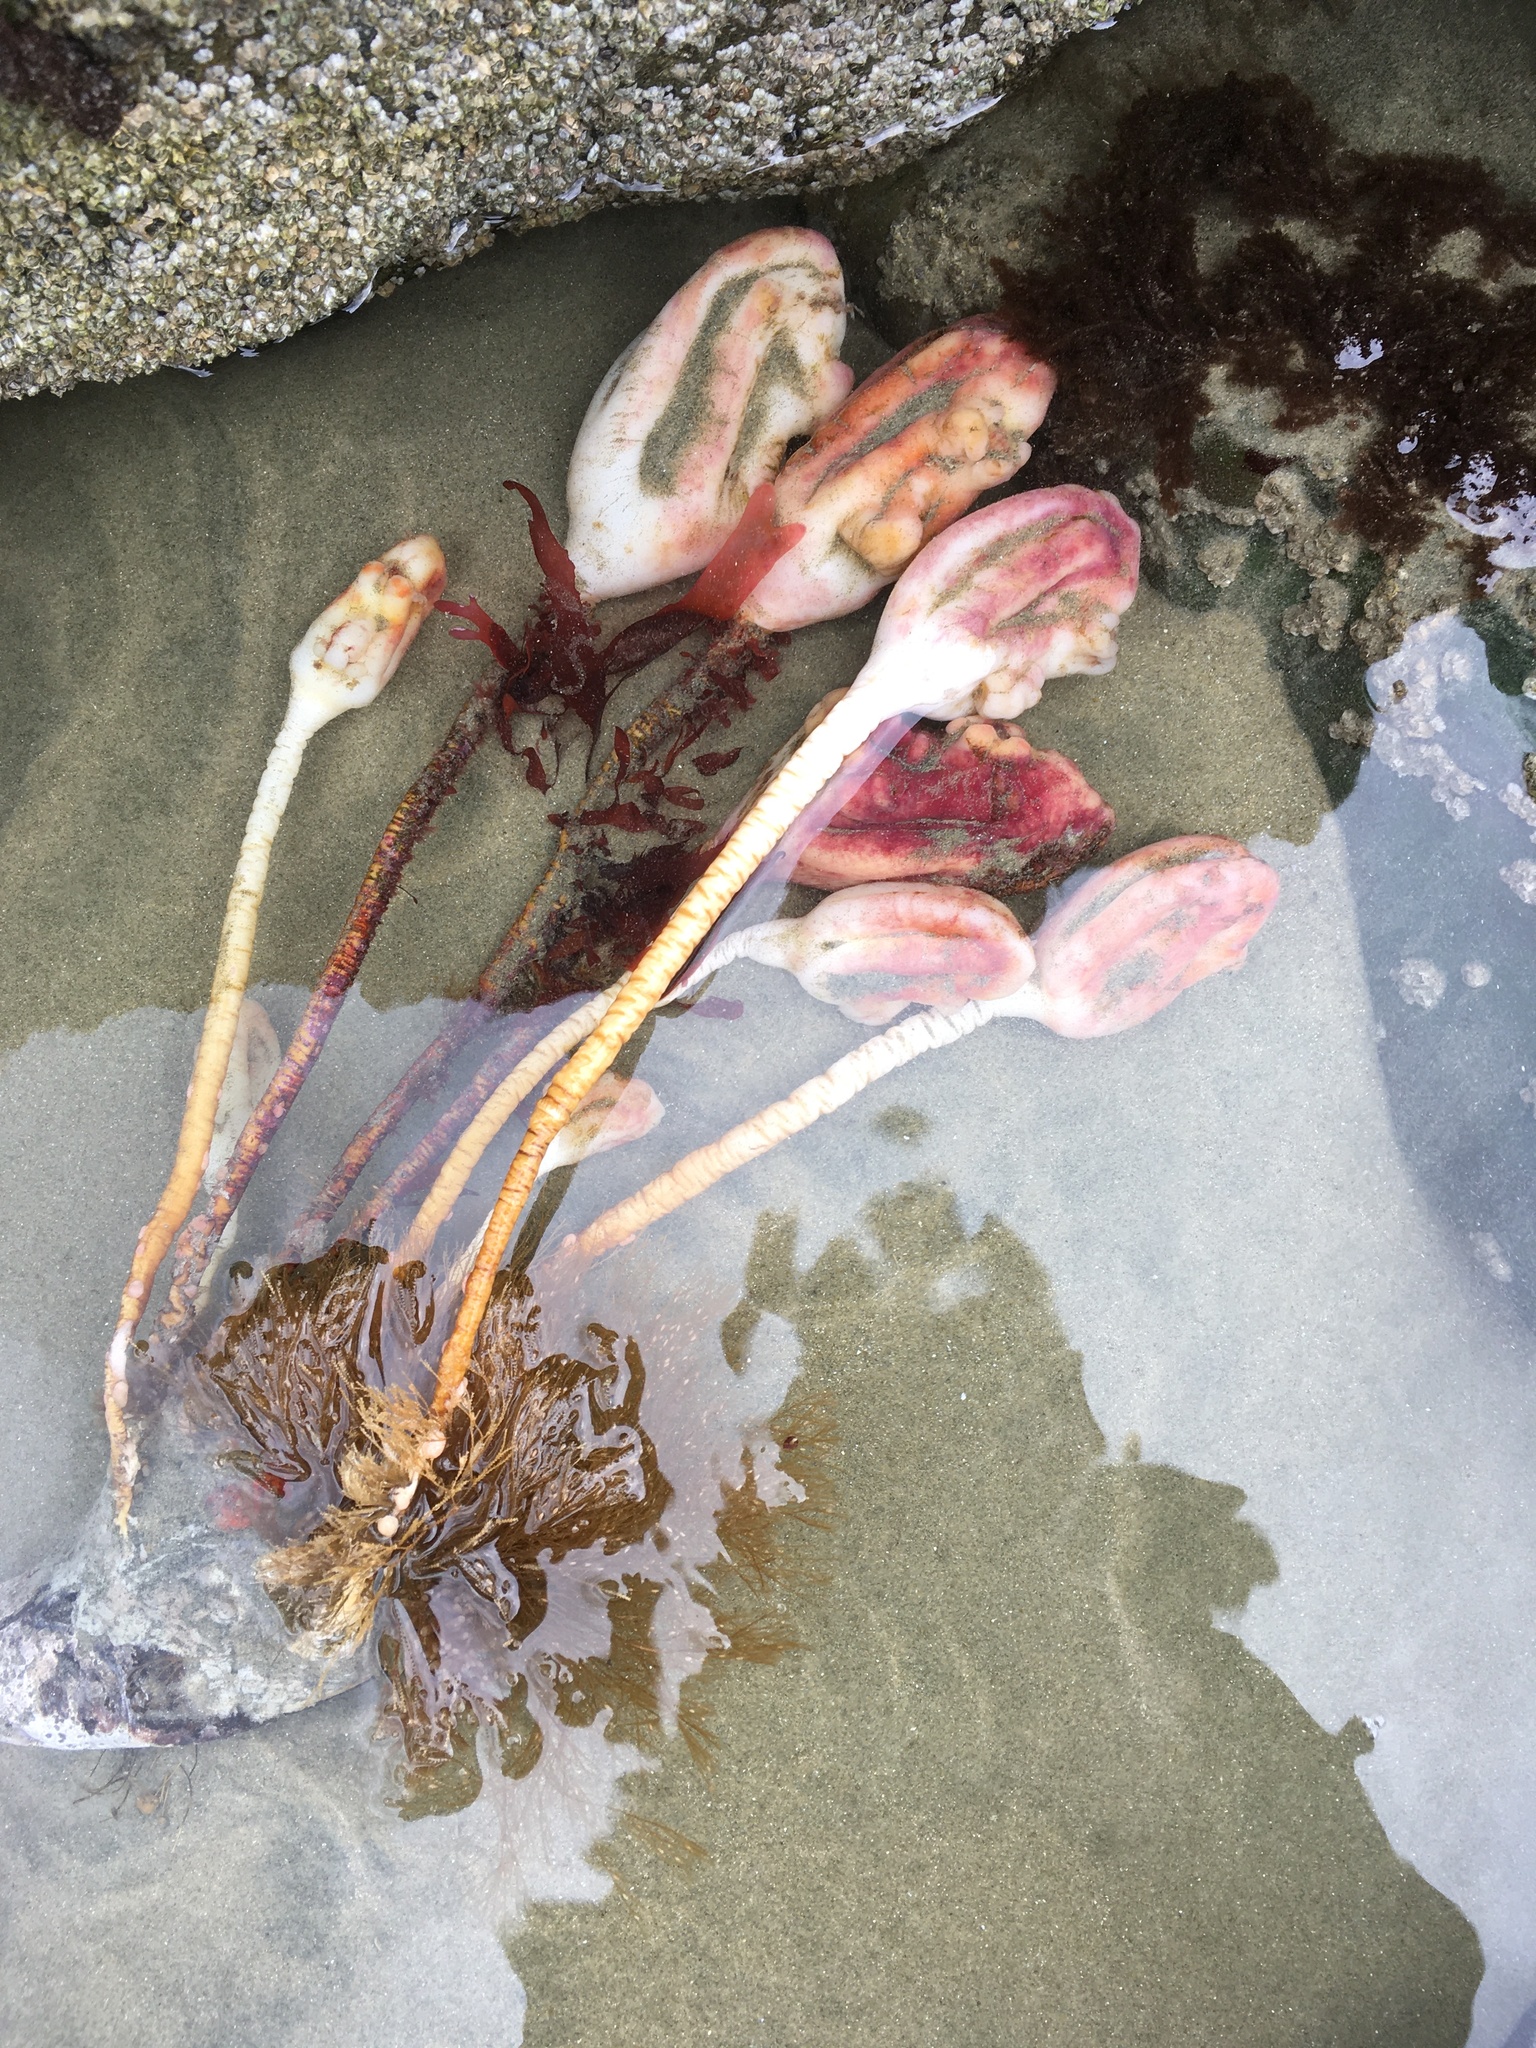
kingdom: Animalia
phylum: Chordata
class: Ascidiacea
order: Stolidobranchia
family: Pyuridae
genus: Pyura
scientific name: Pyura pachydermatina
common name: Sea tulip
